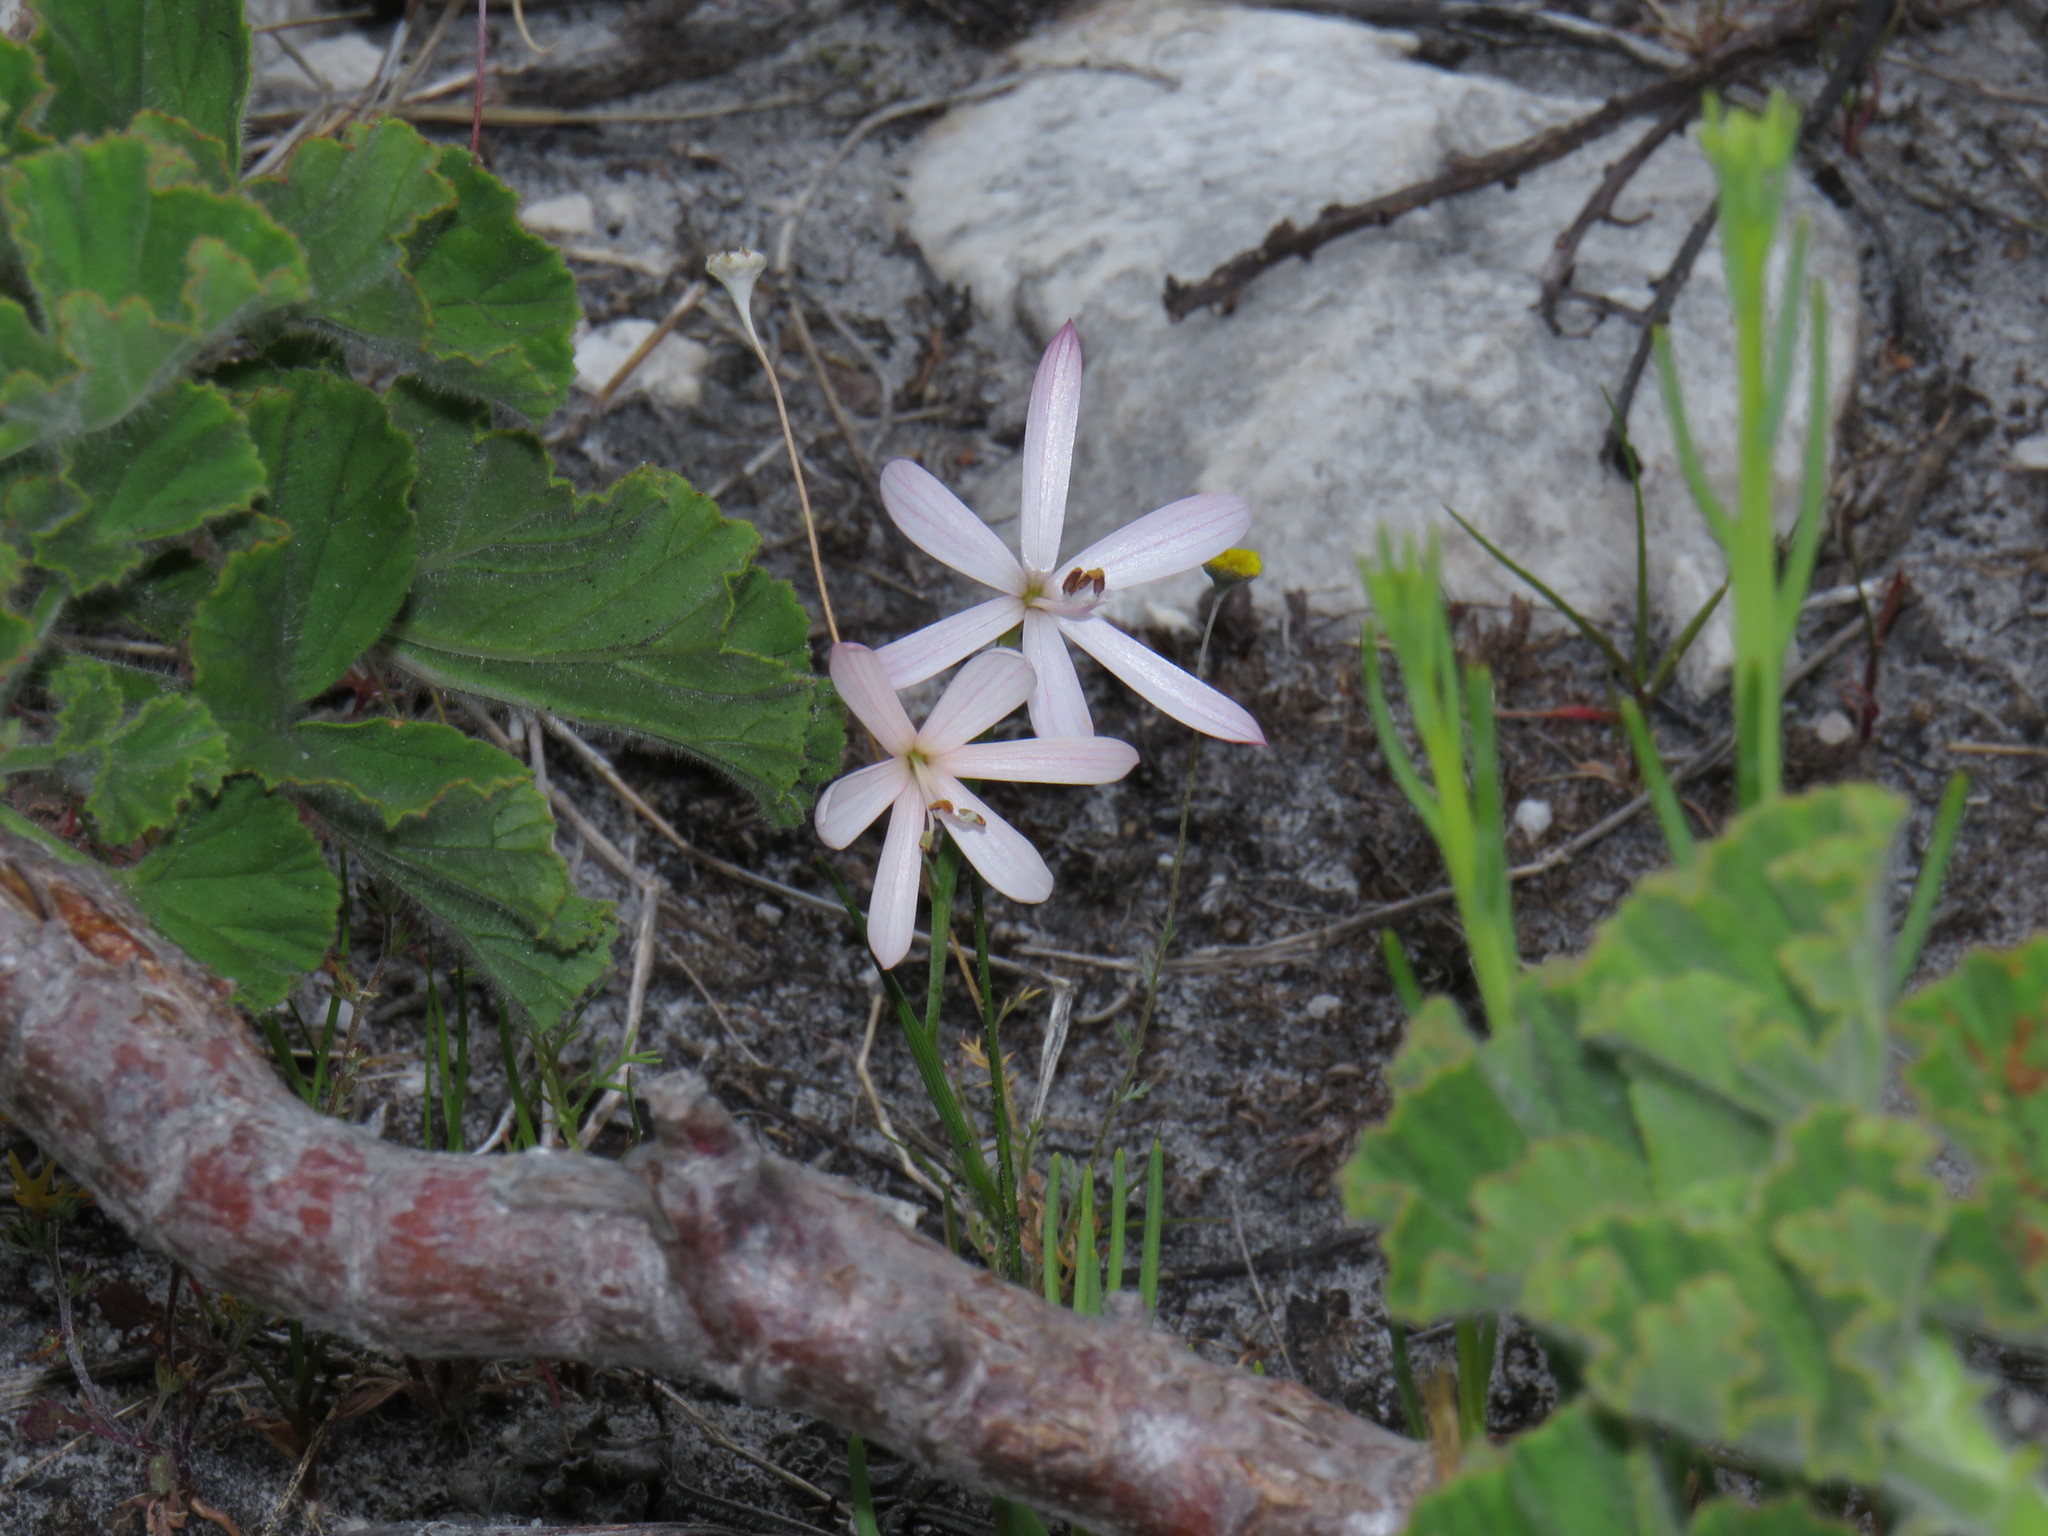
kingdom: Plantae
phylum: Tracheophyta
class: Liliopsida
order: Asparagales
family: Iridaceae
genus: Geissorhiza
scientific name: Geissorhiza bonae-spei
